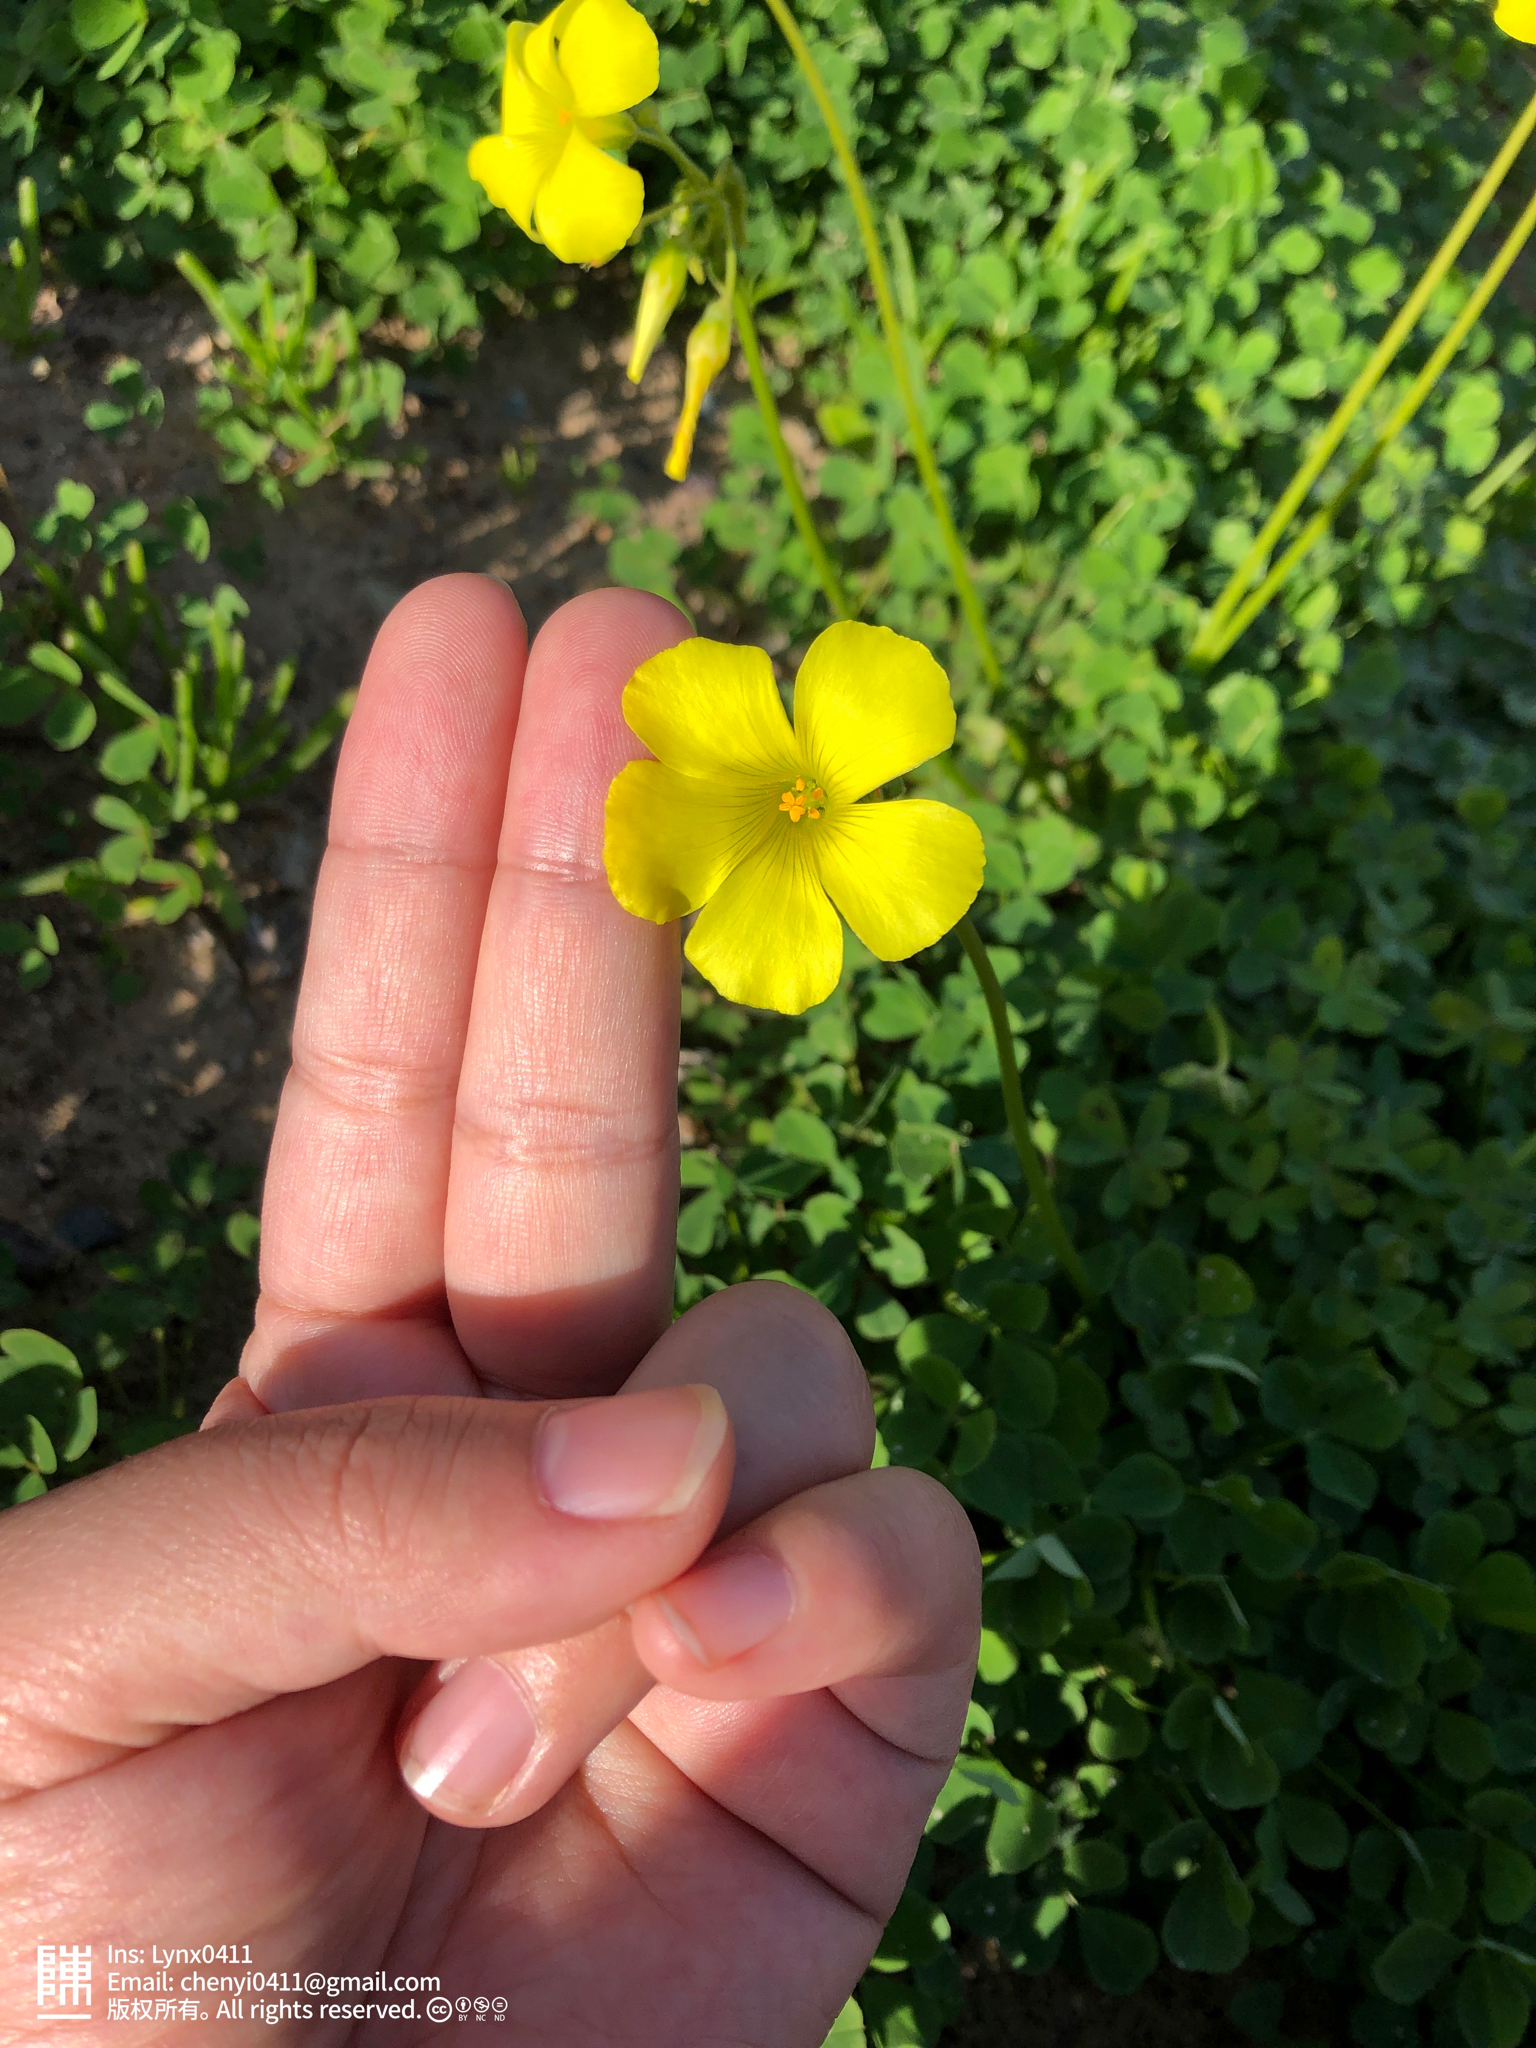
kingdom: Plantae
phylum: Tracheophyta
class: Magnoliopsida
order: Oxalidales
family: Oxalidaceae
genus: Oxalis
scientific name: Oxalis pes-caprae
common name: Bermuda-buttercup
